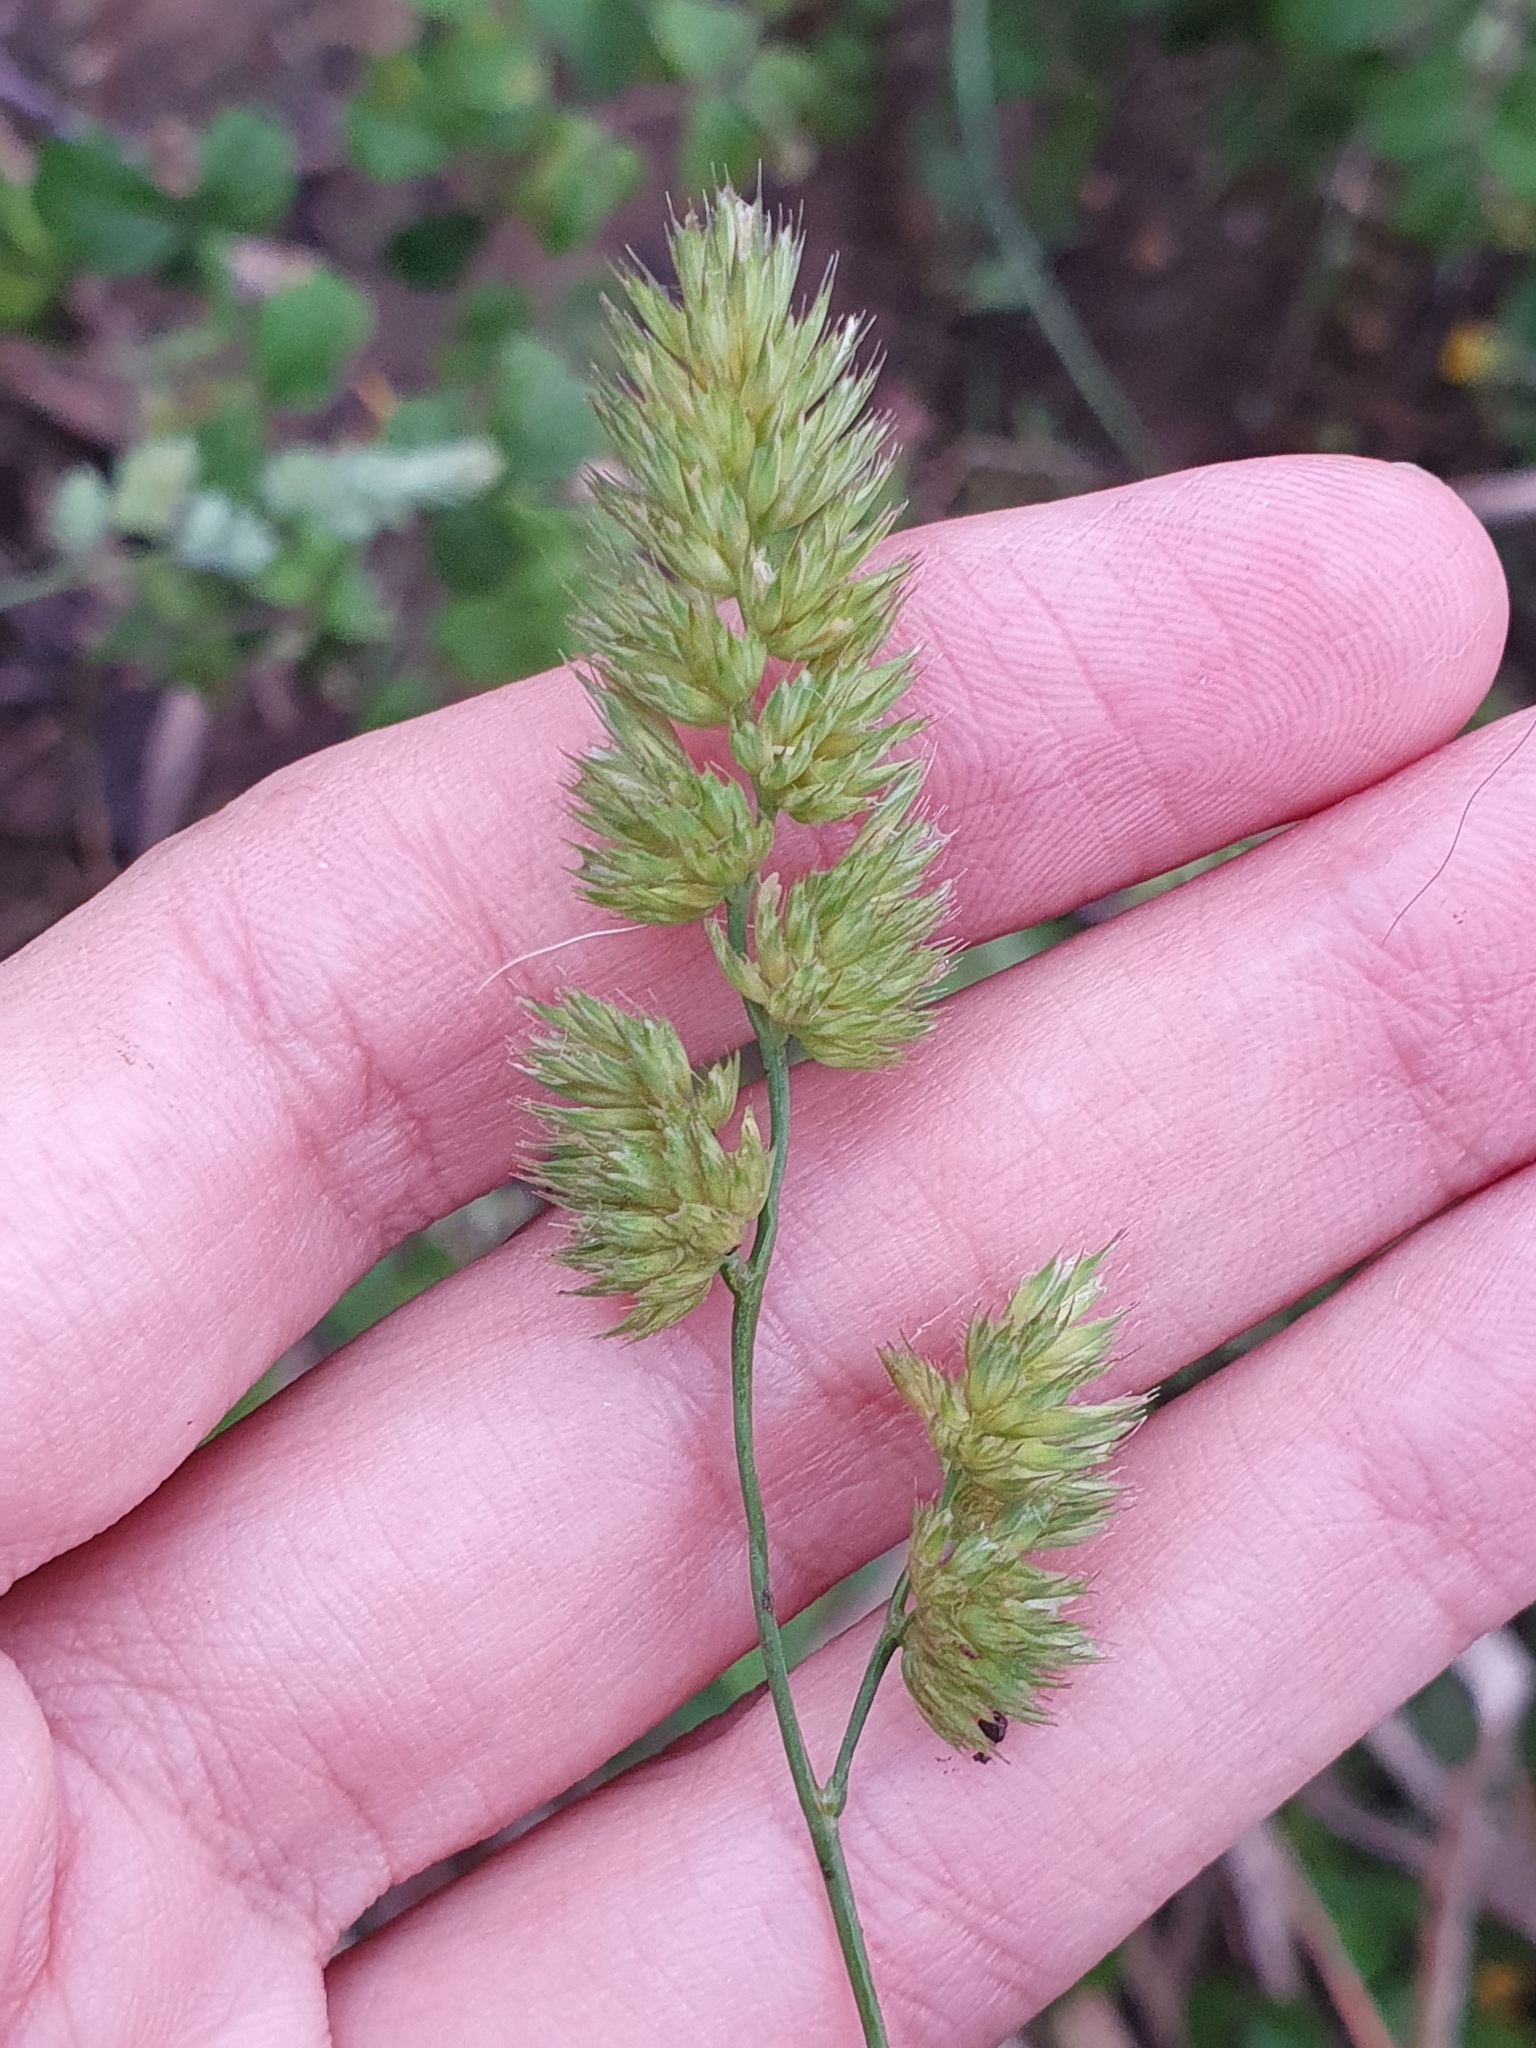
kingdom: Plantae
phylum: Tracheophyta
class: Liliopsida
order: Poales
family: Poaceae
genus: Dactylis
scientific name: Dactylis glomerata
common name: Orchardgrass
